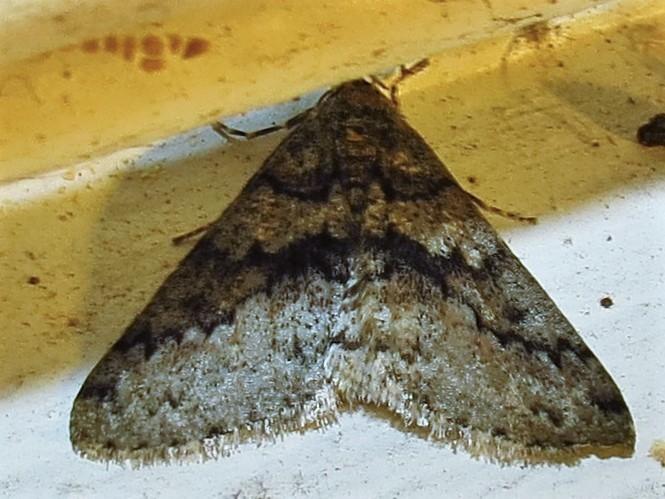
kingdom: Animalia
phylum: Arthropoda
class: Insecta
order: Lepidoptera
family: Geometridae
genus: Phigalia
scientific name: Phigalia denticulata
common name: Toothed phigalia
